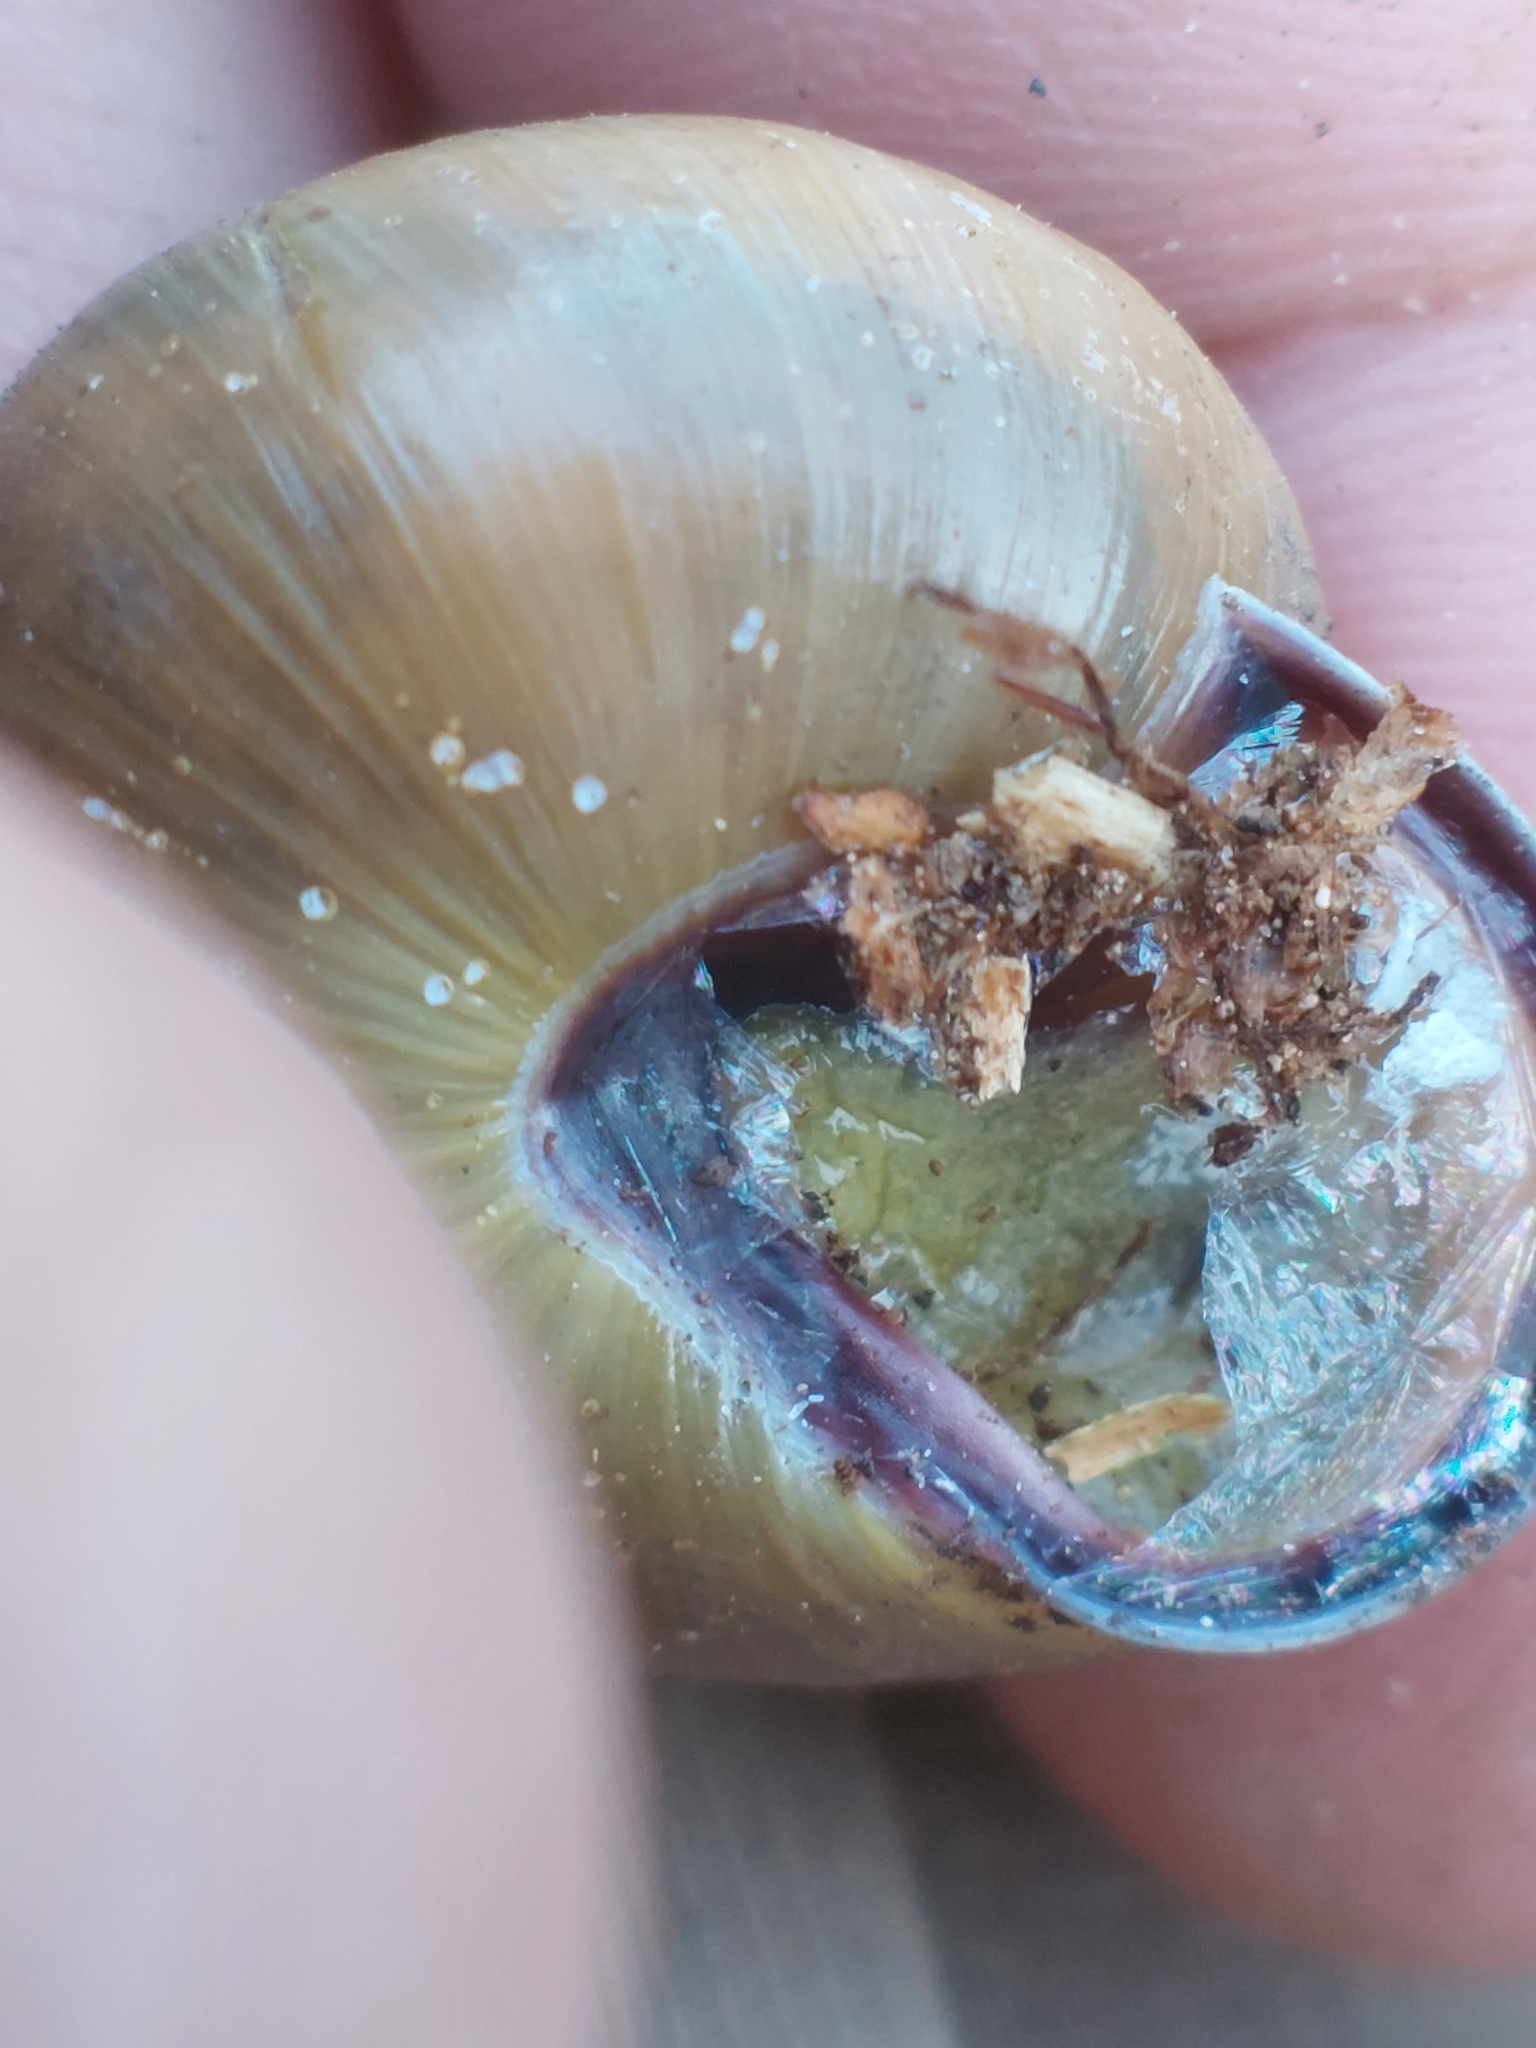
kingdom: Animalia
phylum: Mollusca
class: Gastropoda
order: Stylommatophora
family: Helicidae
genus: Cepaea
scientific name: Cepaea nemoralis
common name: Grovesnail
